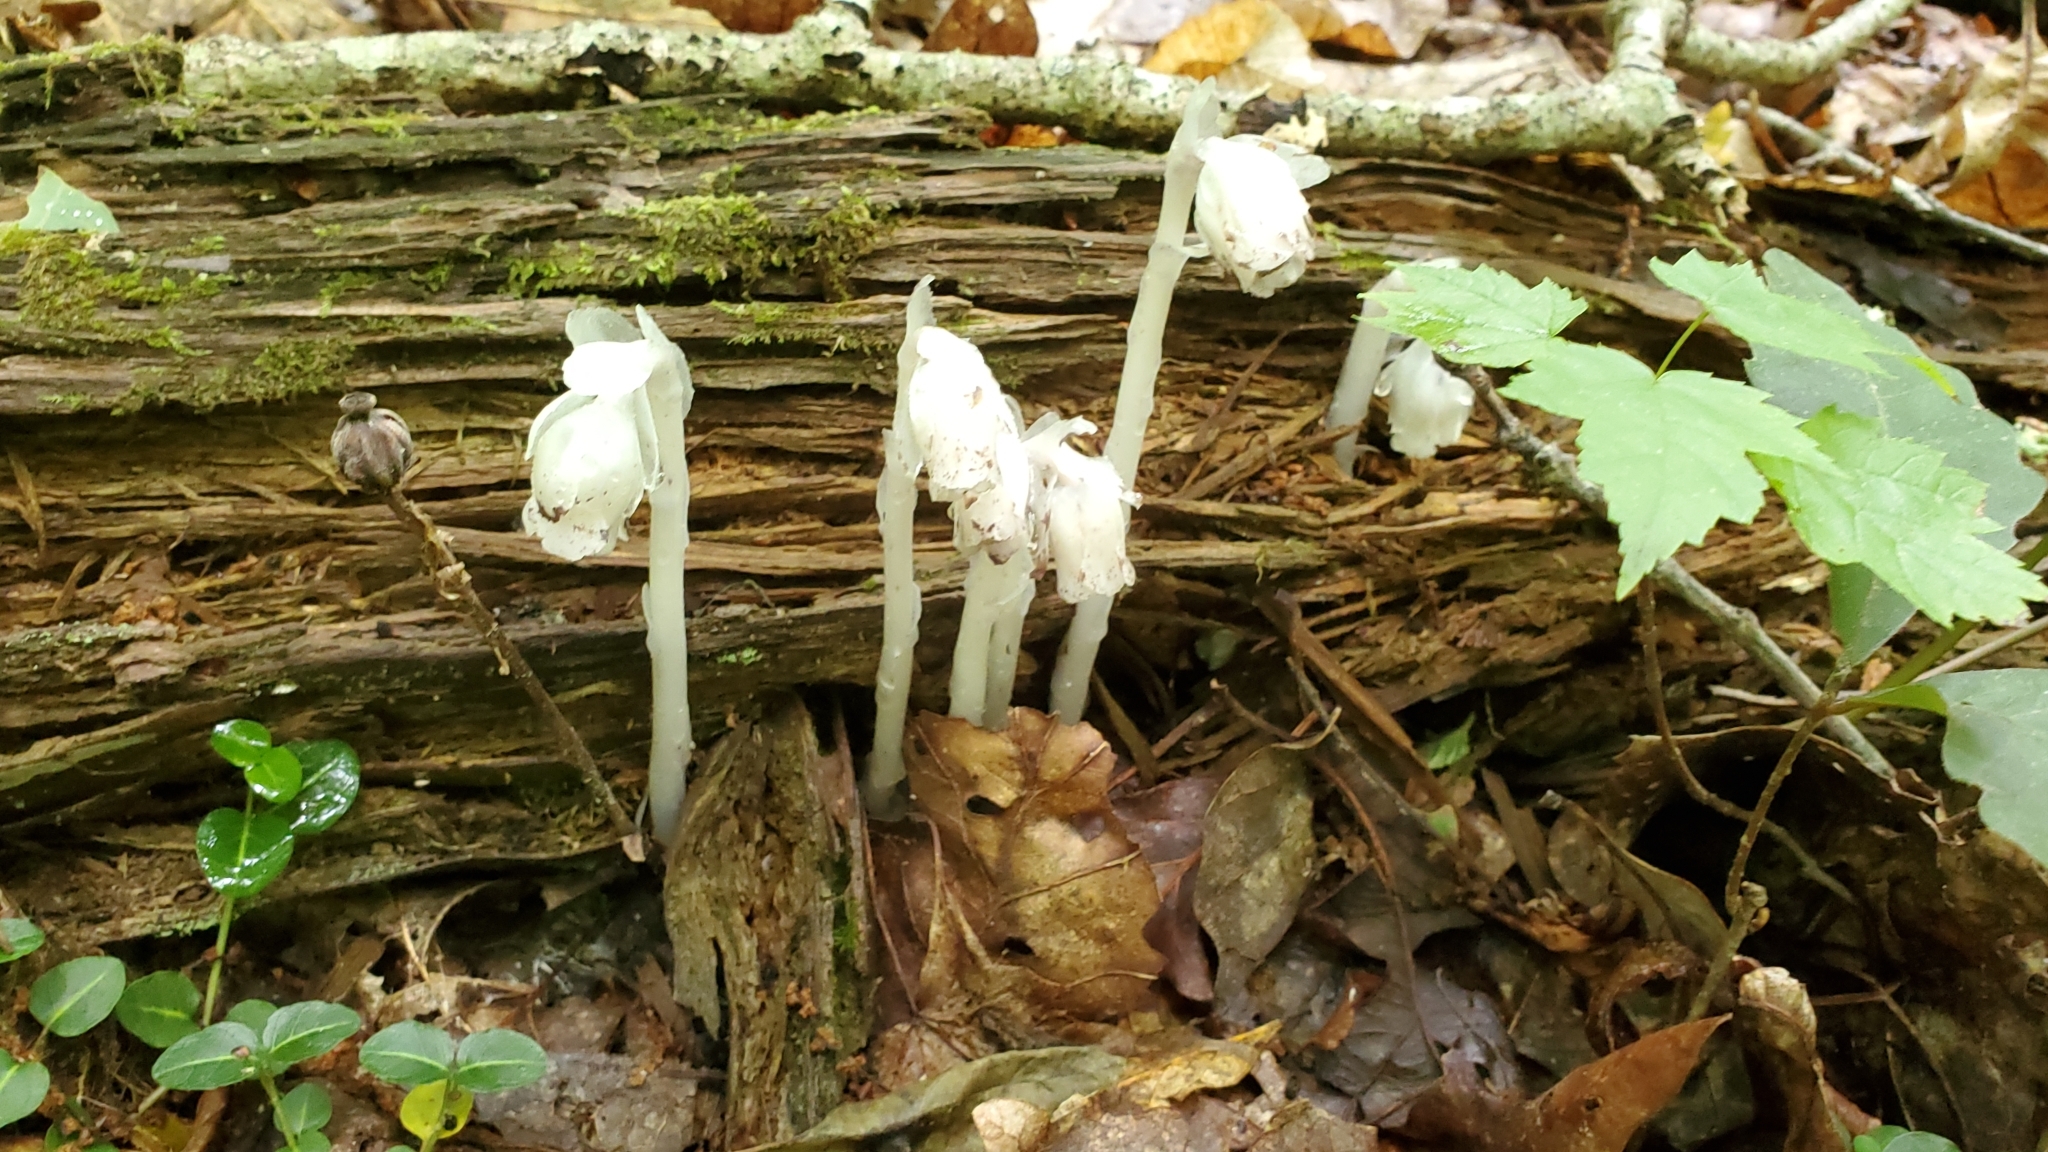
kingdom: Plantae
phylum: Tracheophyta
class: Magnoliopsida
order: Ericales
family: Ericaceae
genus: Monotropa
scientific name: Monotropa uniflora
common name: Convulsion root
